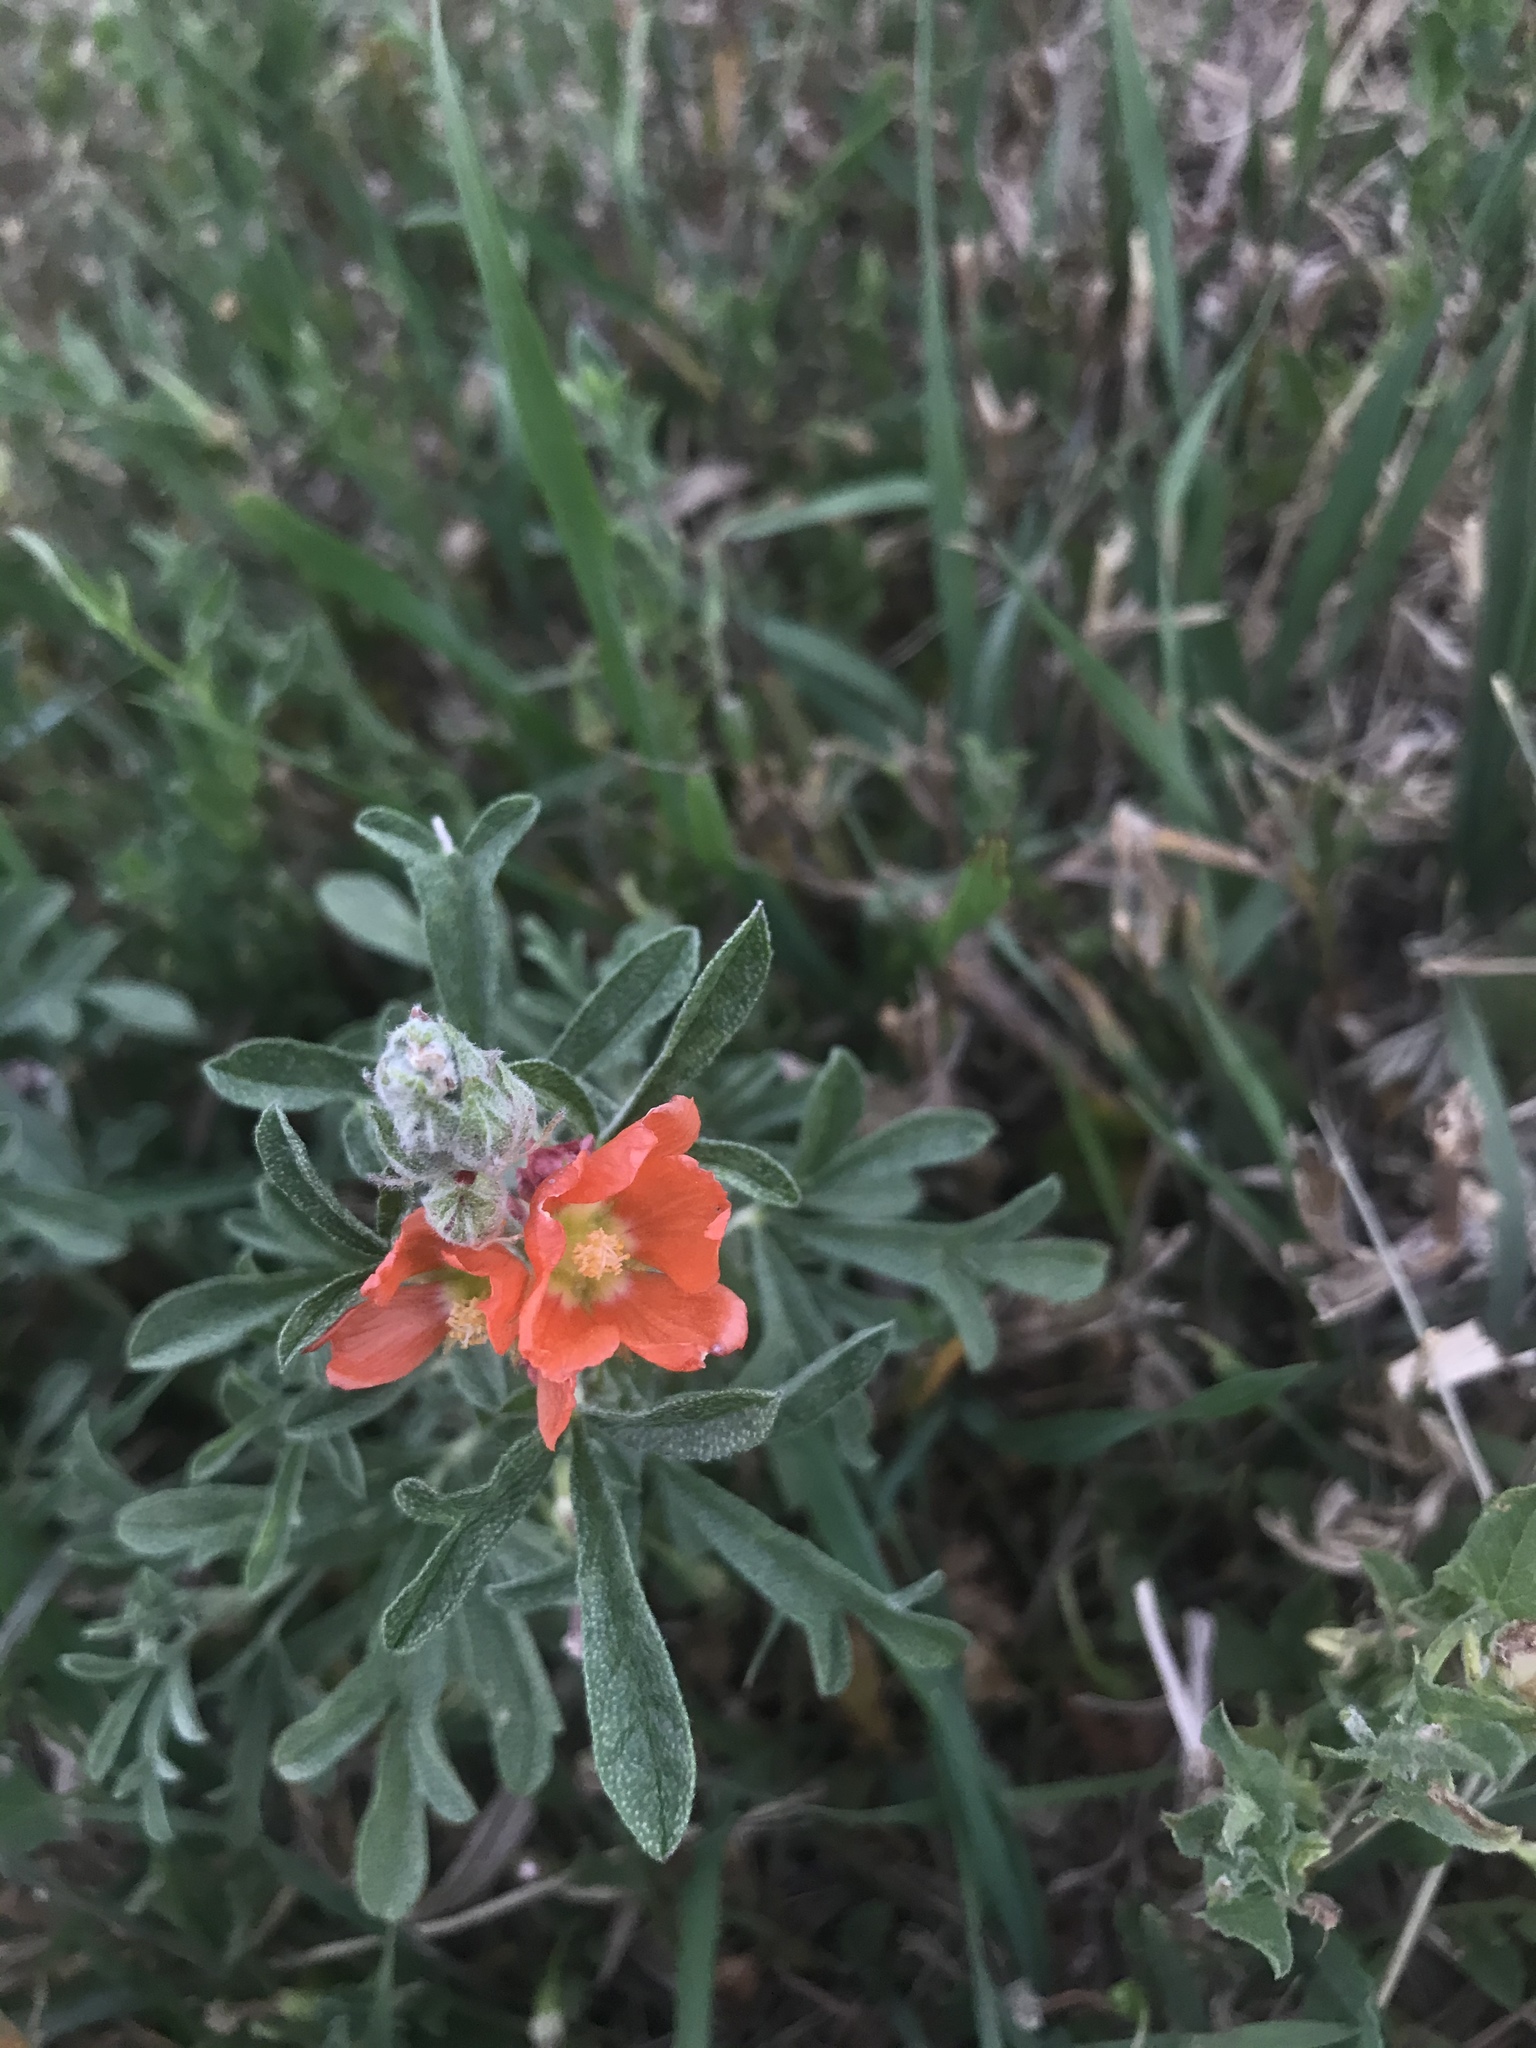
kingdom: Plantae
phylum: Tracheophyta
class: Magnoliopsida
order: Malvales
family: Malvaceae
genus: Sphaeralcea
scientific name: Sphaeralcea coccinea
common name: Moss-rose
